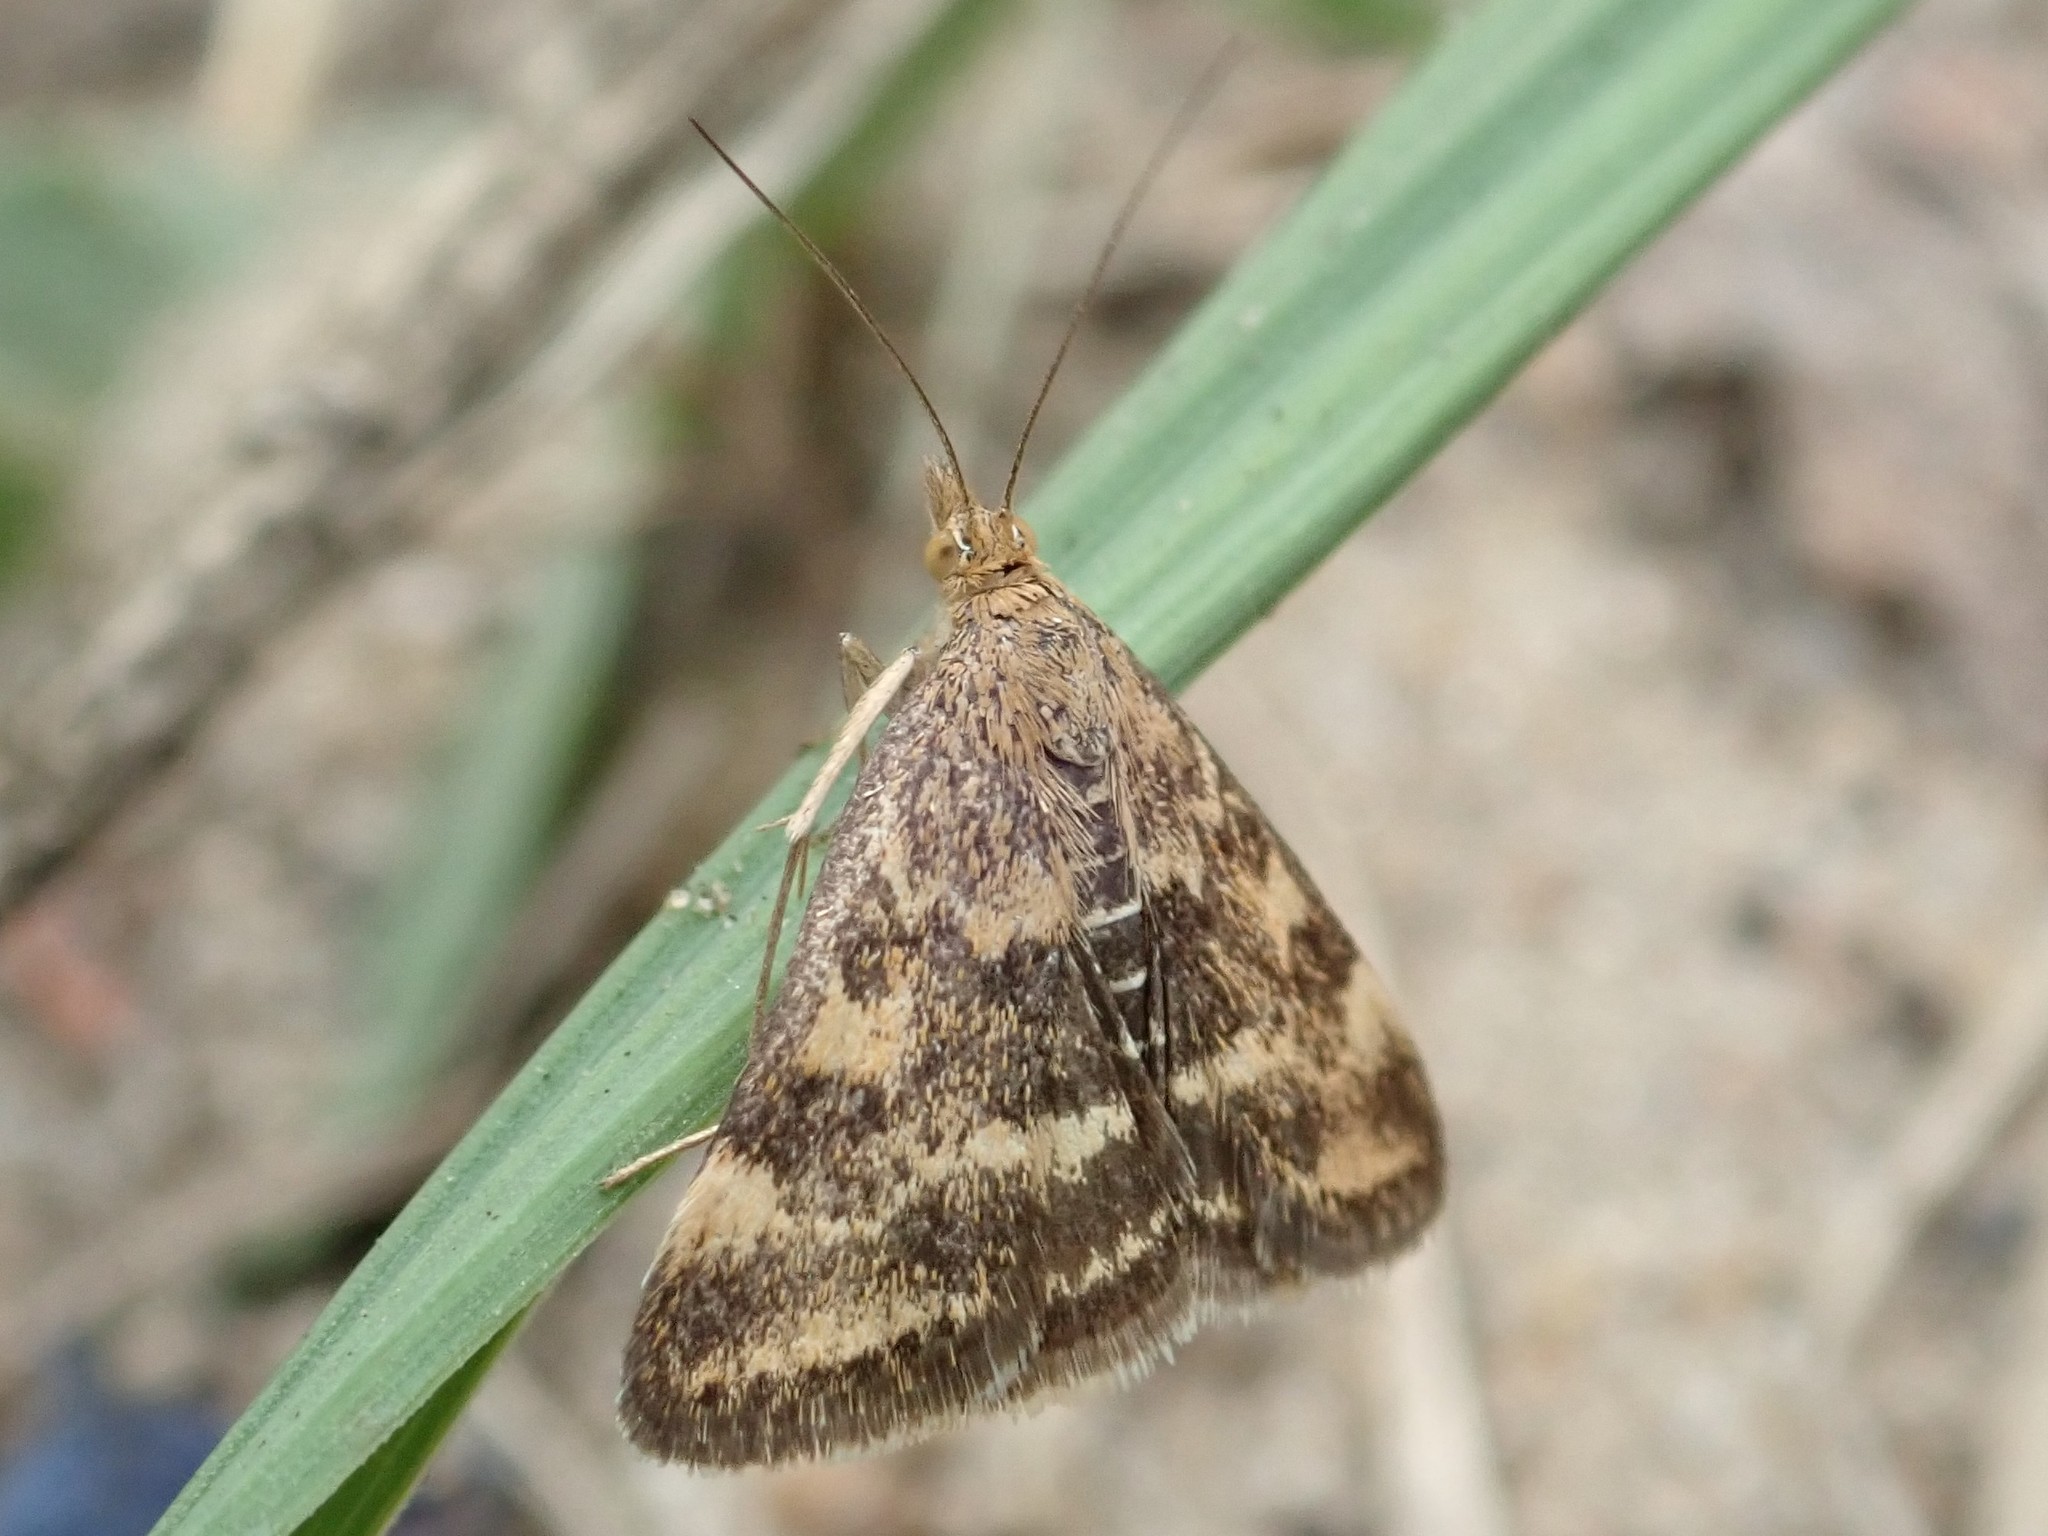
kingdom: Animalia
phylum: Arthropoda
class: Insecta
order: Lepidoptera
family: Crambidae
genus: Pyrausta
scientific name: Pyrausta despicata
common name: Straw-barred pearl
